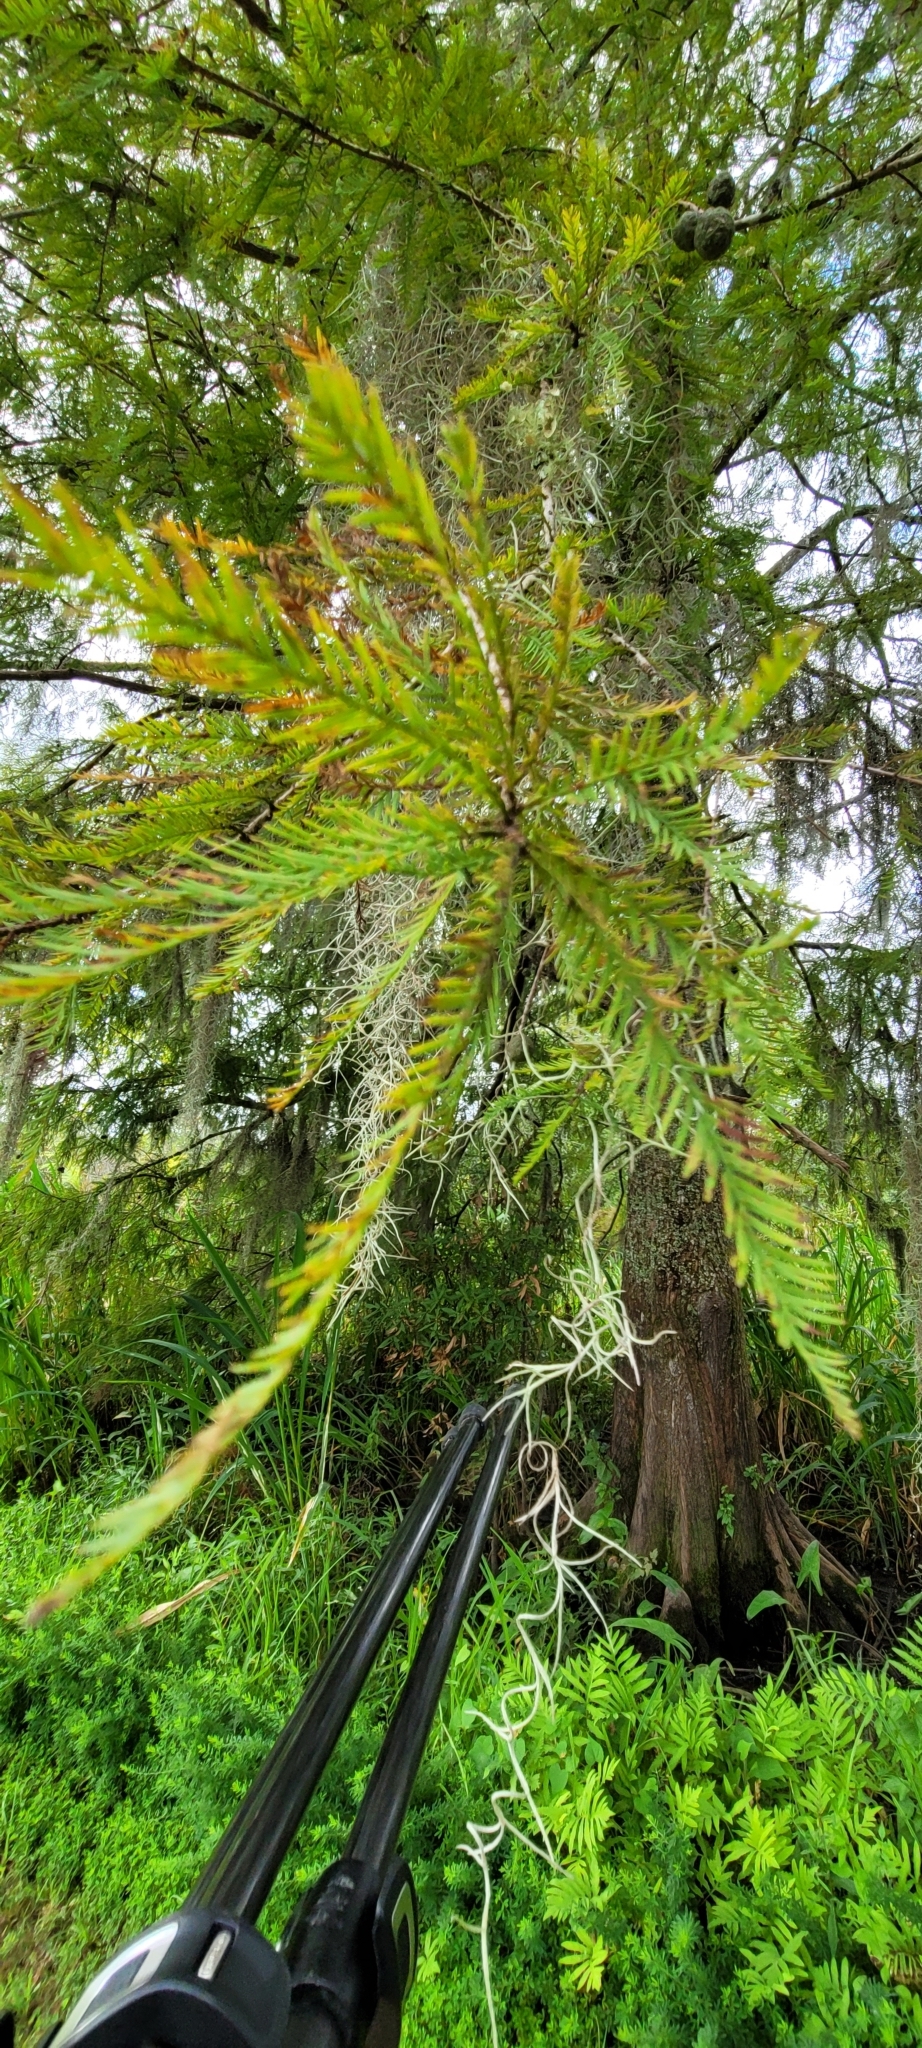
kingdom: Plantae
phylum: Tracheophyta
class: Pinopsida
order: Pinales
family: Cupressaceae
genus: Taxodium
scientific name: Taxodium distichum
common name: Bald cypress
